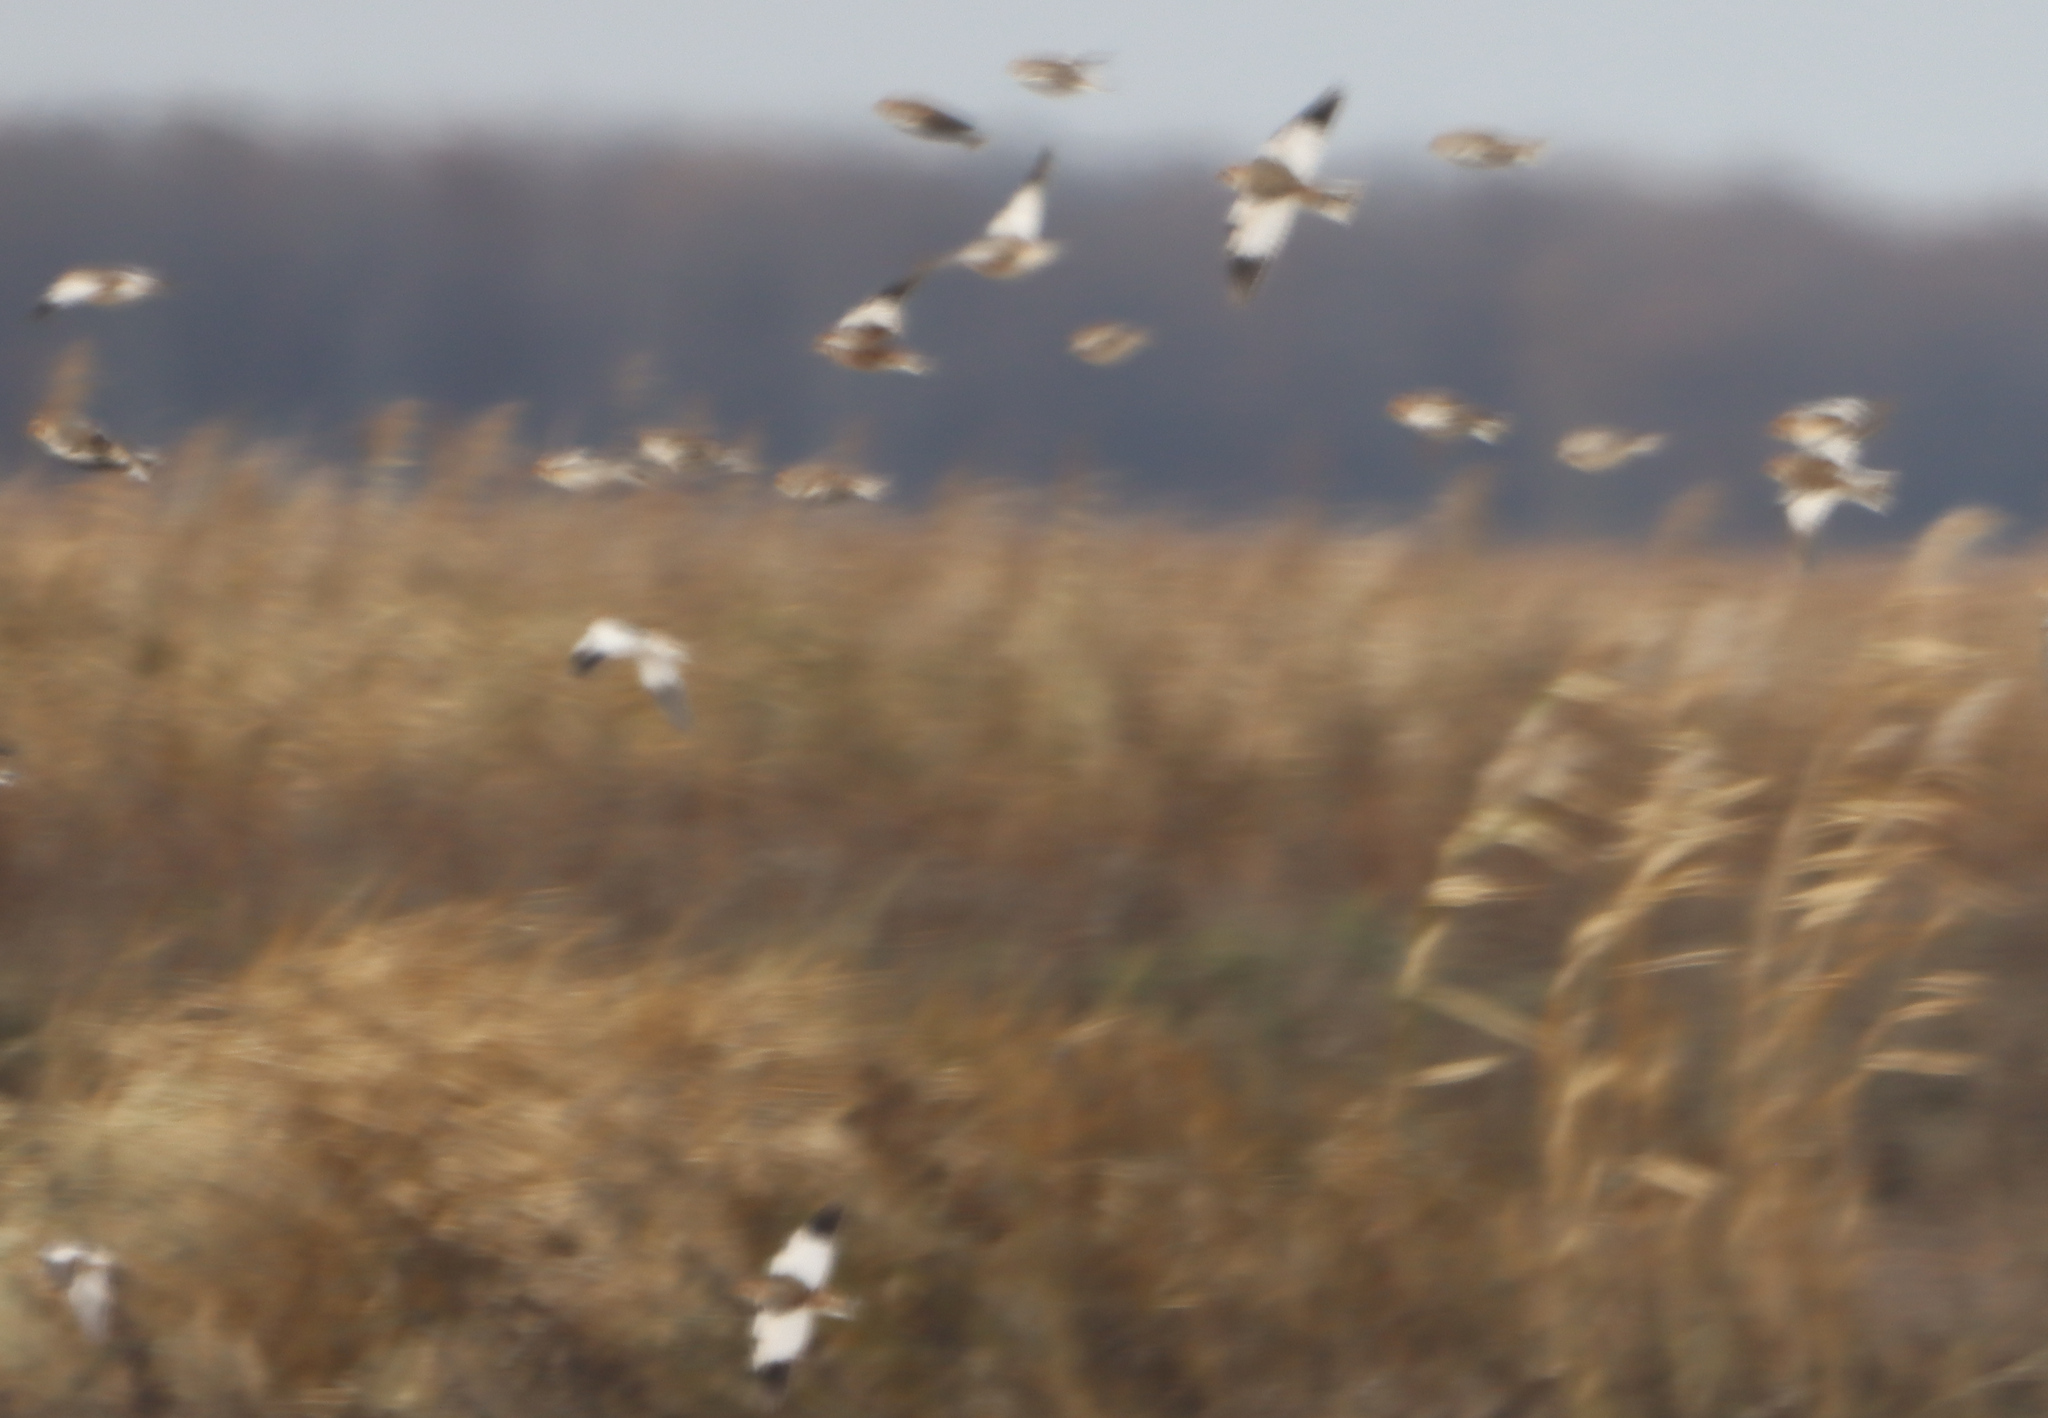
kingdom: Animalia
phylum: Chordata
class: Aves
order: Passeriformes
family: Calcariidae
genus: Plectrophenax
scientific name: Plectrophenax nivalis
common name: Snow bunting
